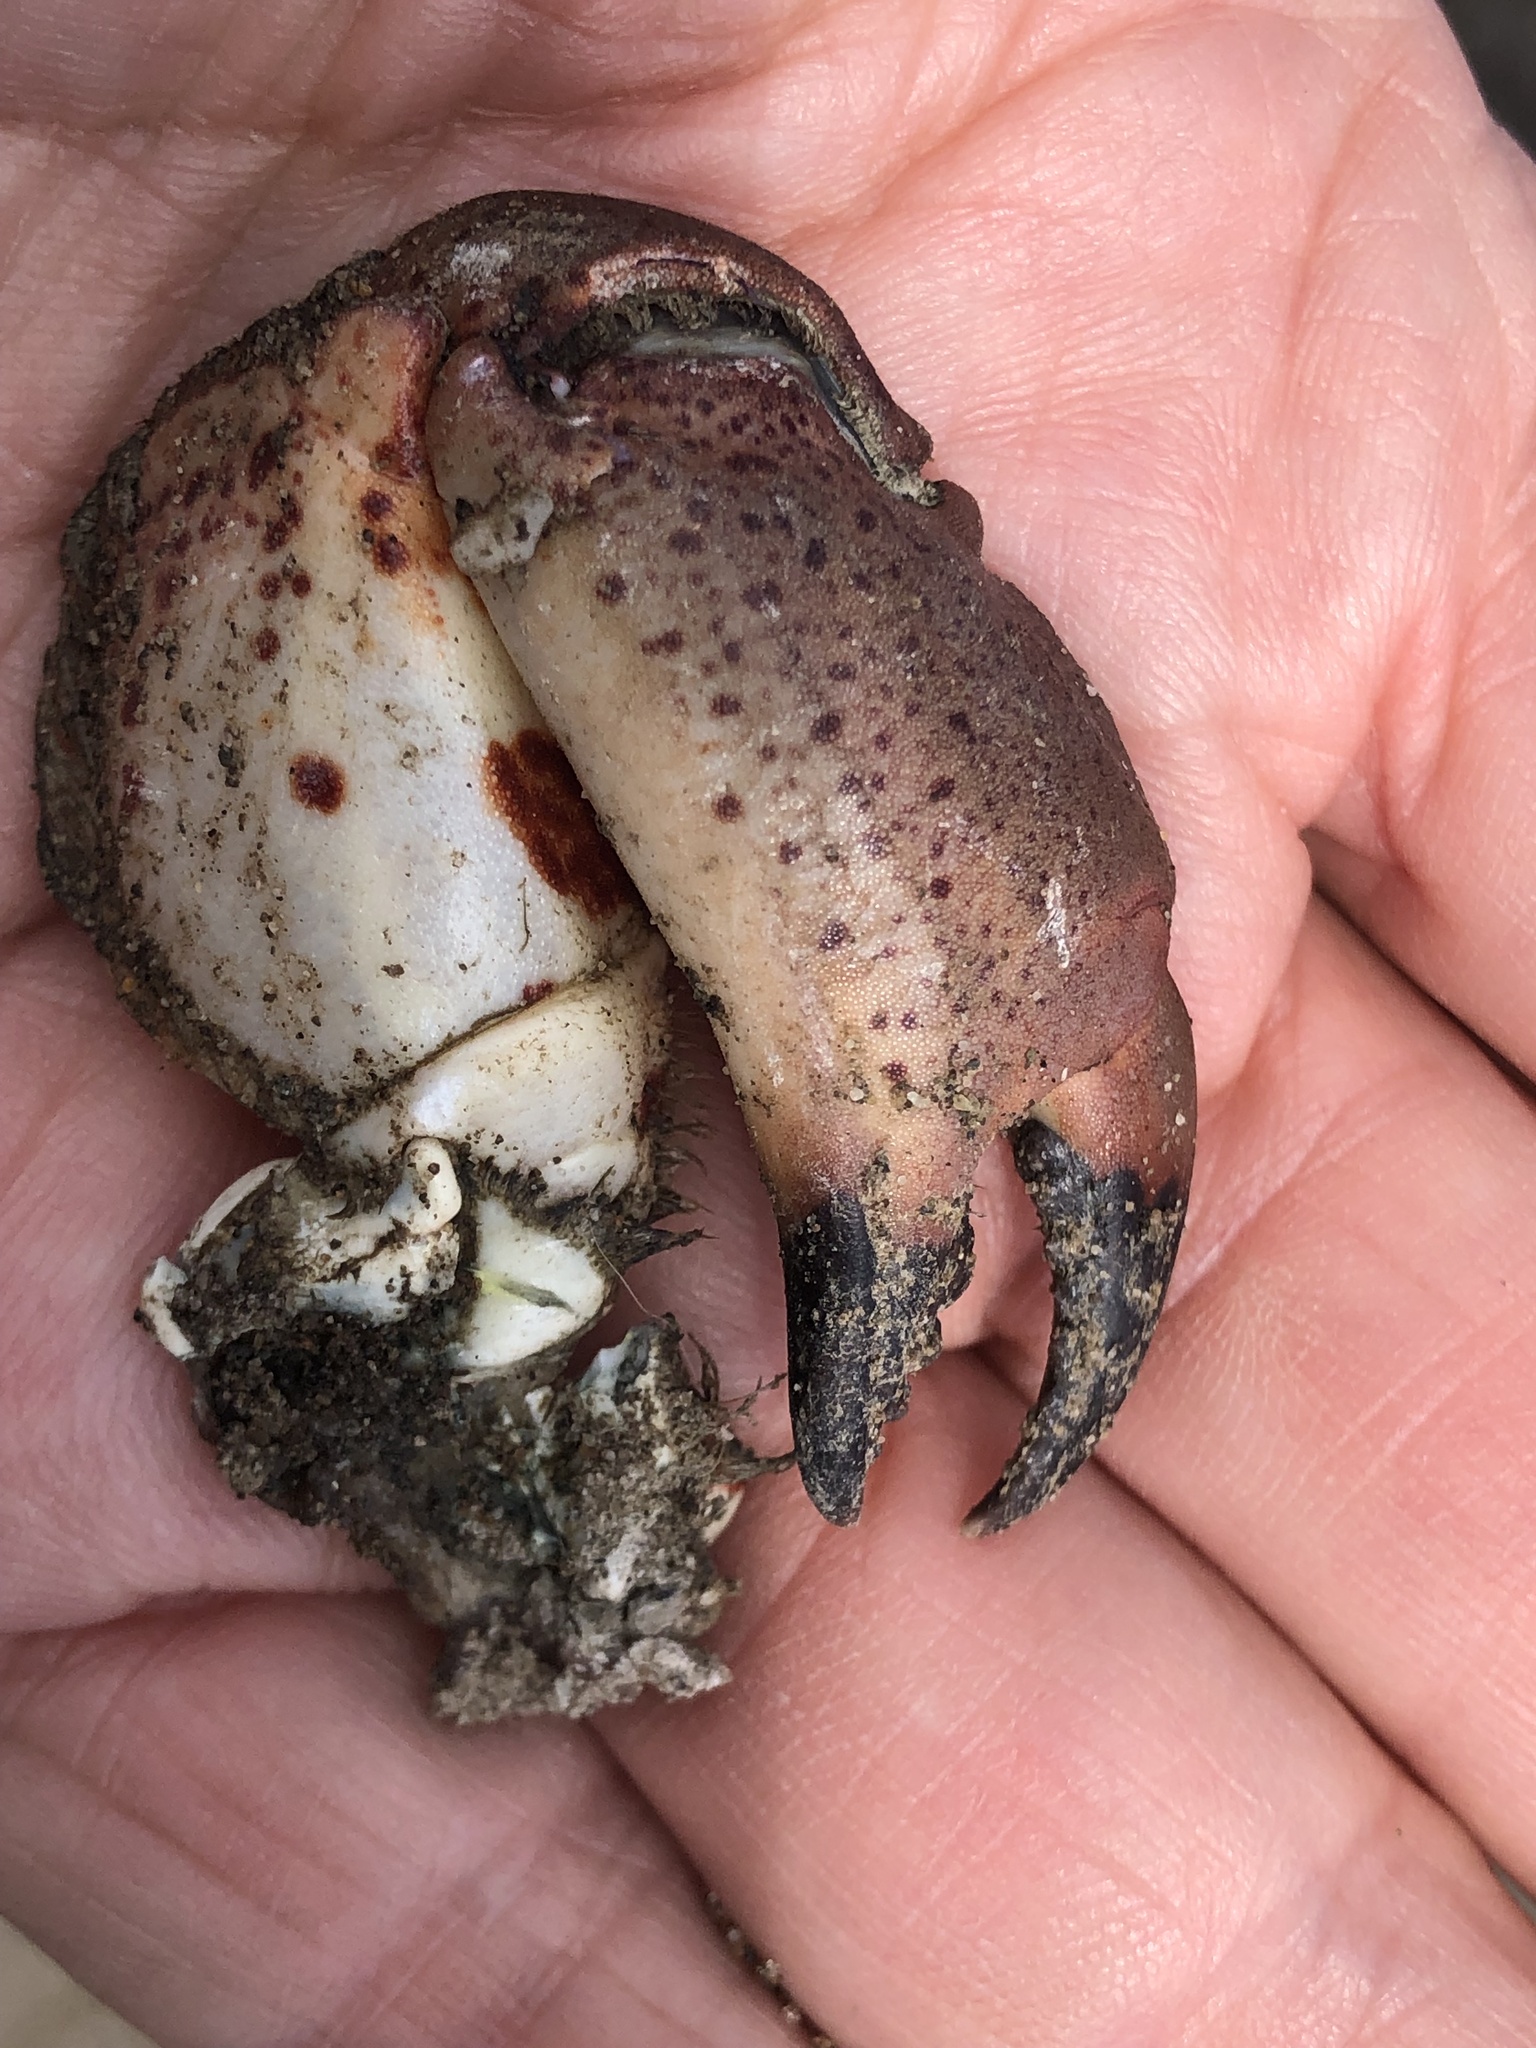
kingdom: Animalia
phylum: Arthropoda
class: Malacostraca
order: Decapoda
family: Cancridae
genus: Romaleon
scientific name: Romaleon antennarium
